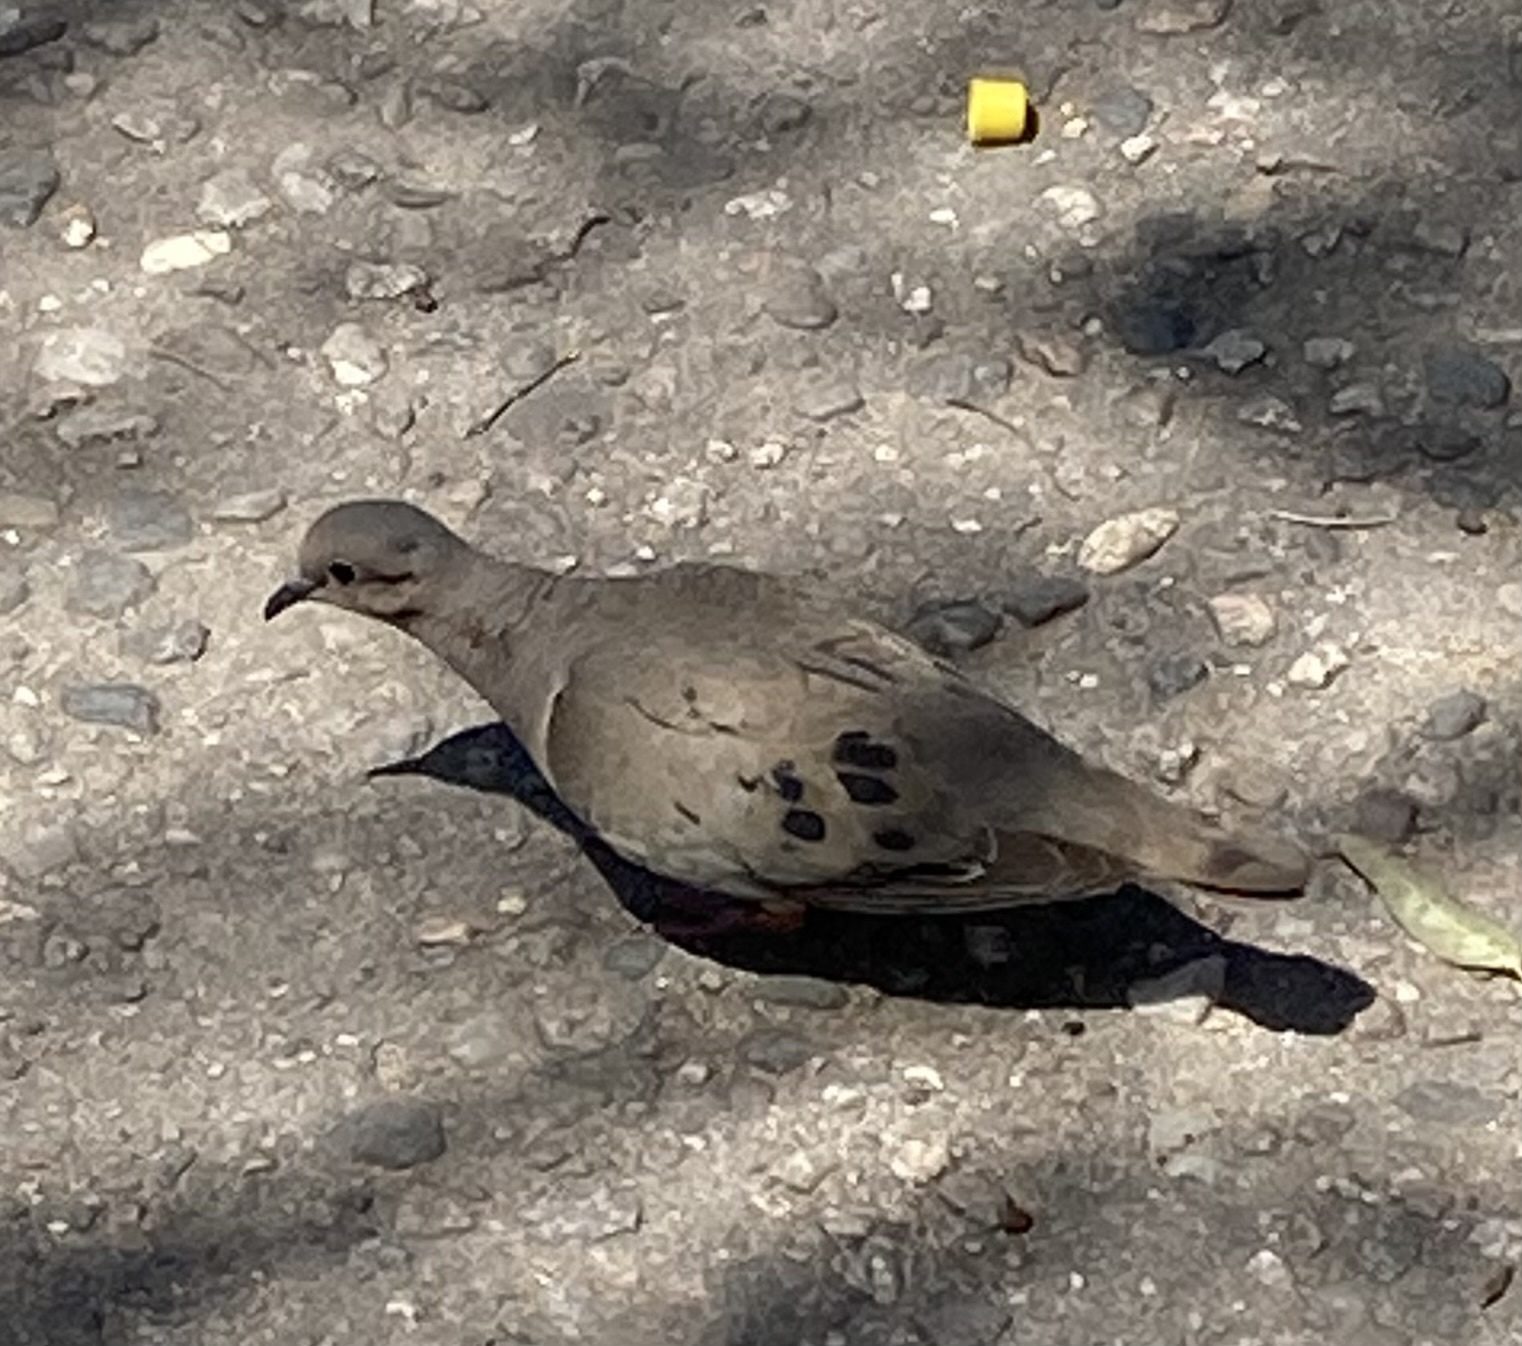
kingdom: Animalia
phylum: Chordata
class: Aves
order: Columbiformes
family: Columbidae
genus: Zenaida
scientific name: Zenaida auriculata
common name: Eared dove
